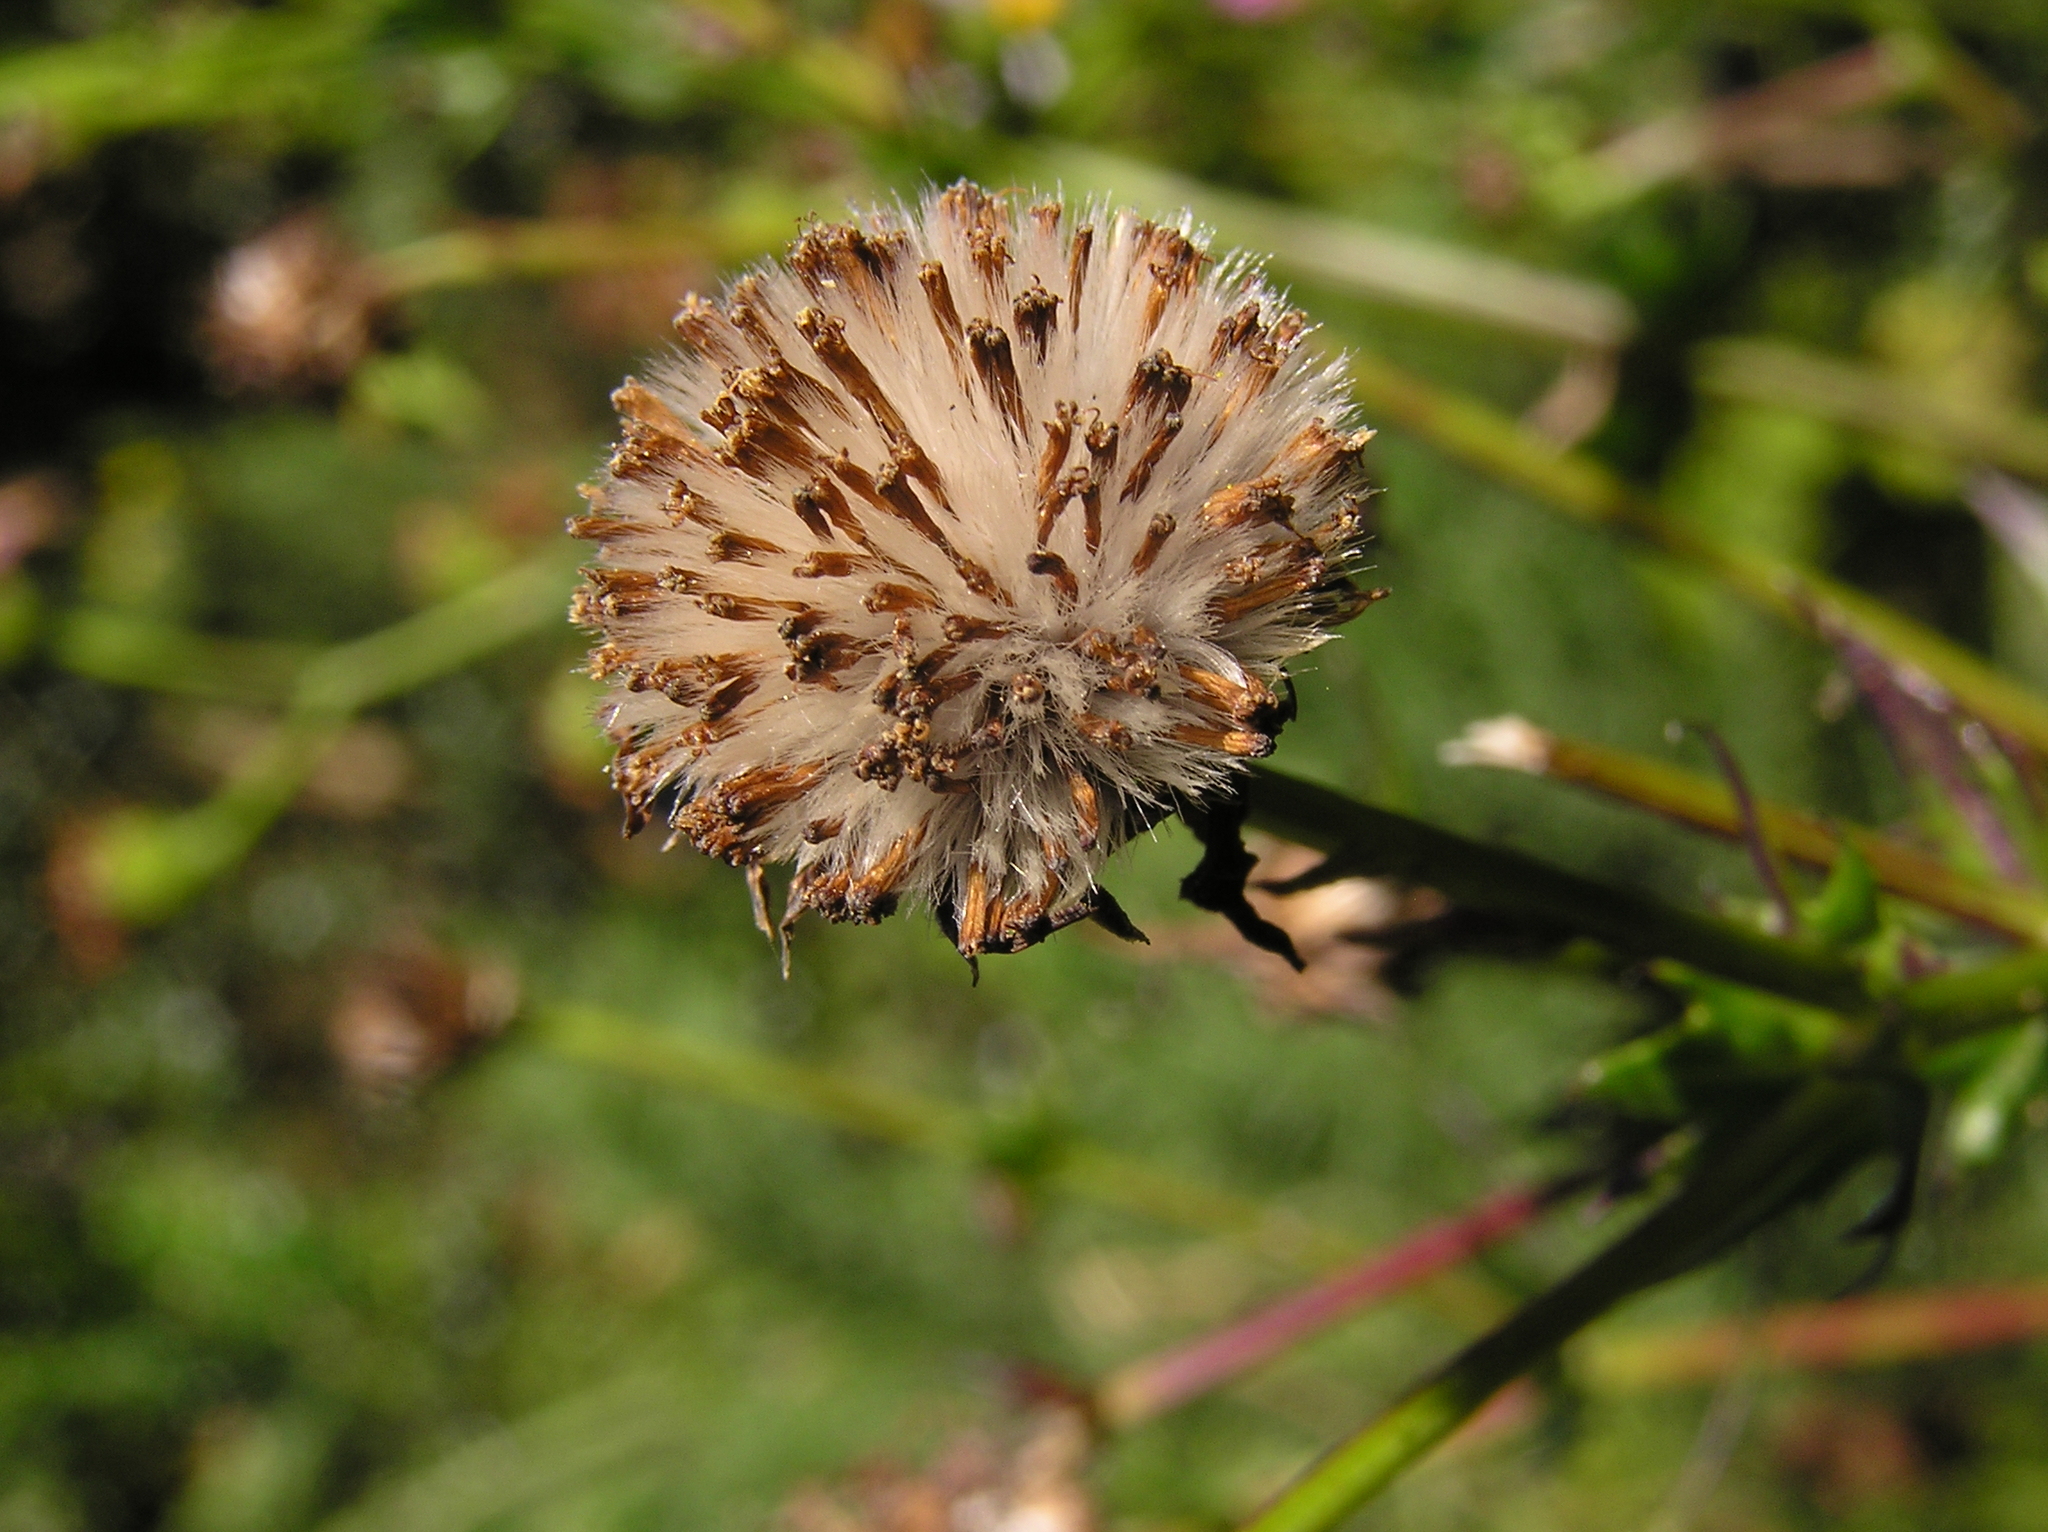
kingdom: Plantae
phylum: Tracheophyta
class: Magnoliopsida
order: Asterales
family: Asteraceae
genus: Senecio
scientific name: Senecio glastifolius
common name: Woad-leaved ragwort
